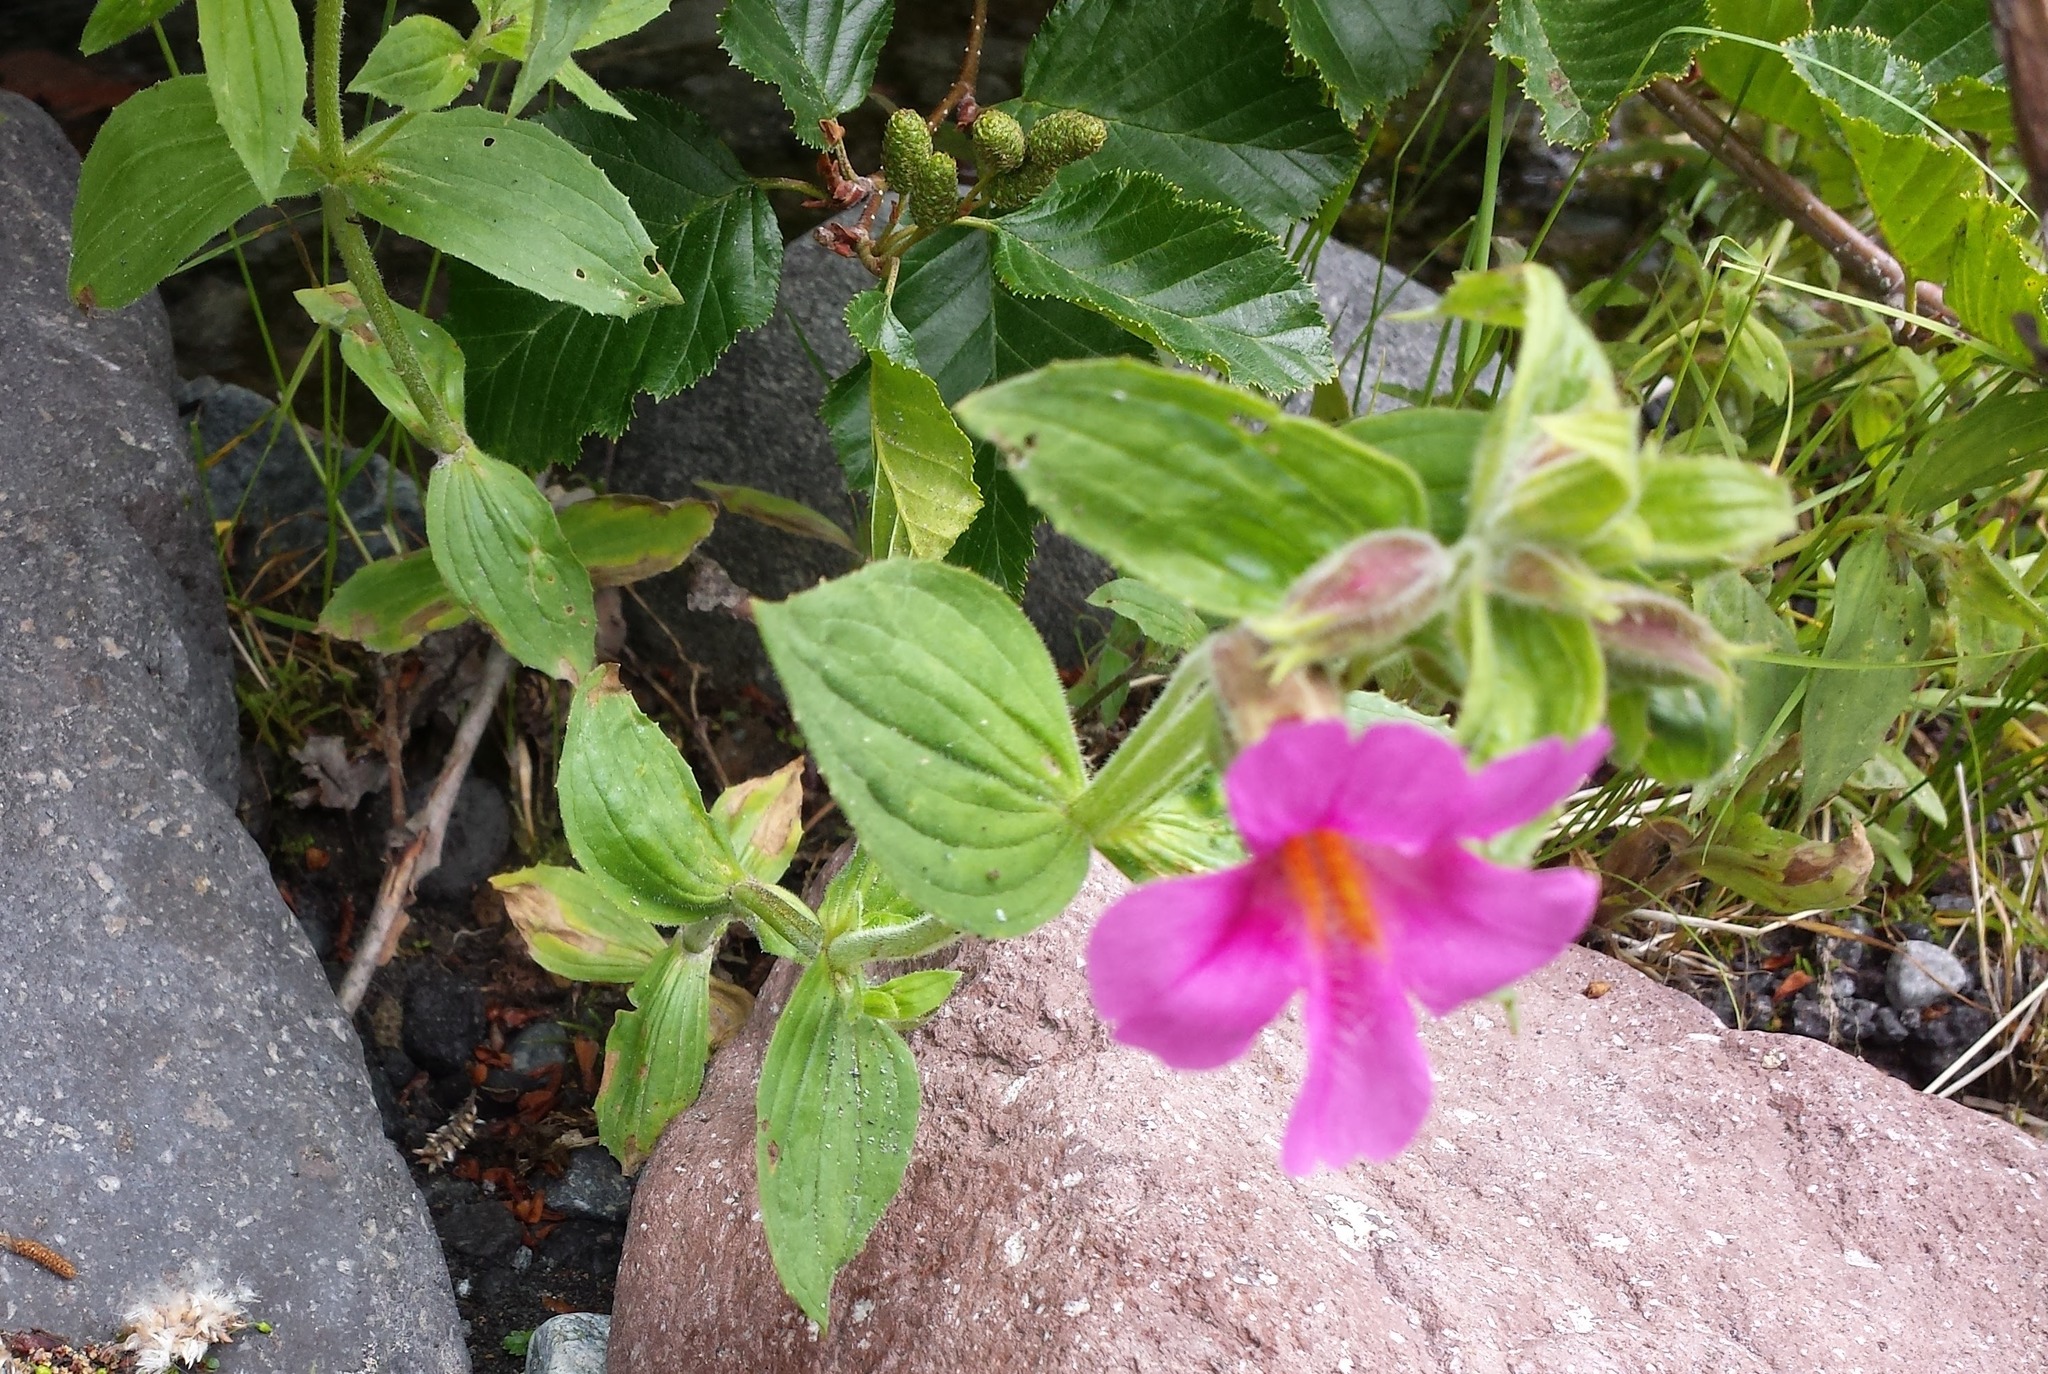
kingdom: Plantae
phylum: Tracheophyta
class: Magnoliopsida
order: Lamiales
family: Phrymaceae
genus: Erythranthe
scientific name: Erythranthe lewisii
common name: Lewis's monkey-flower
